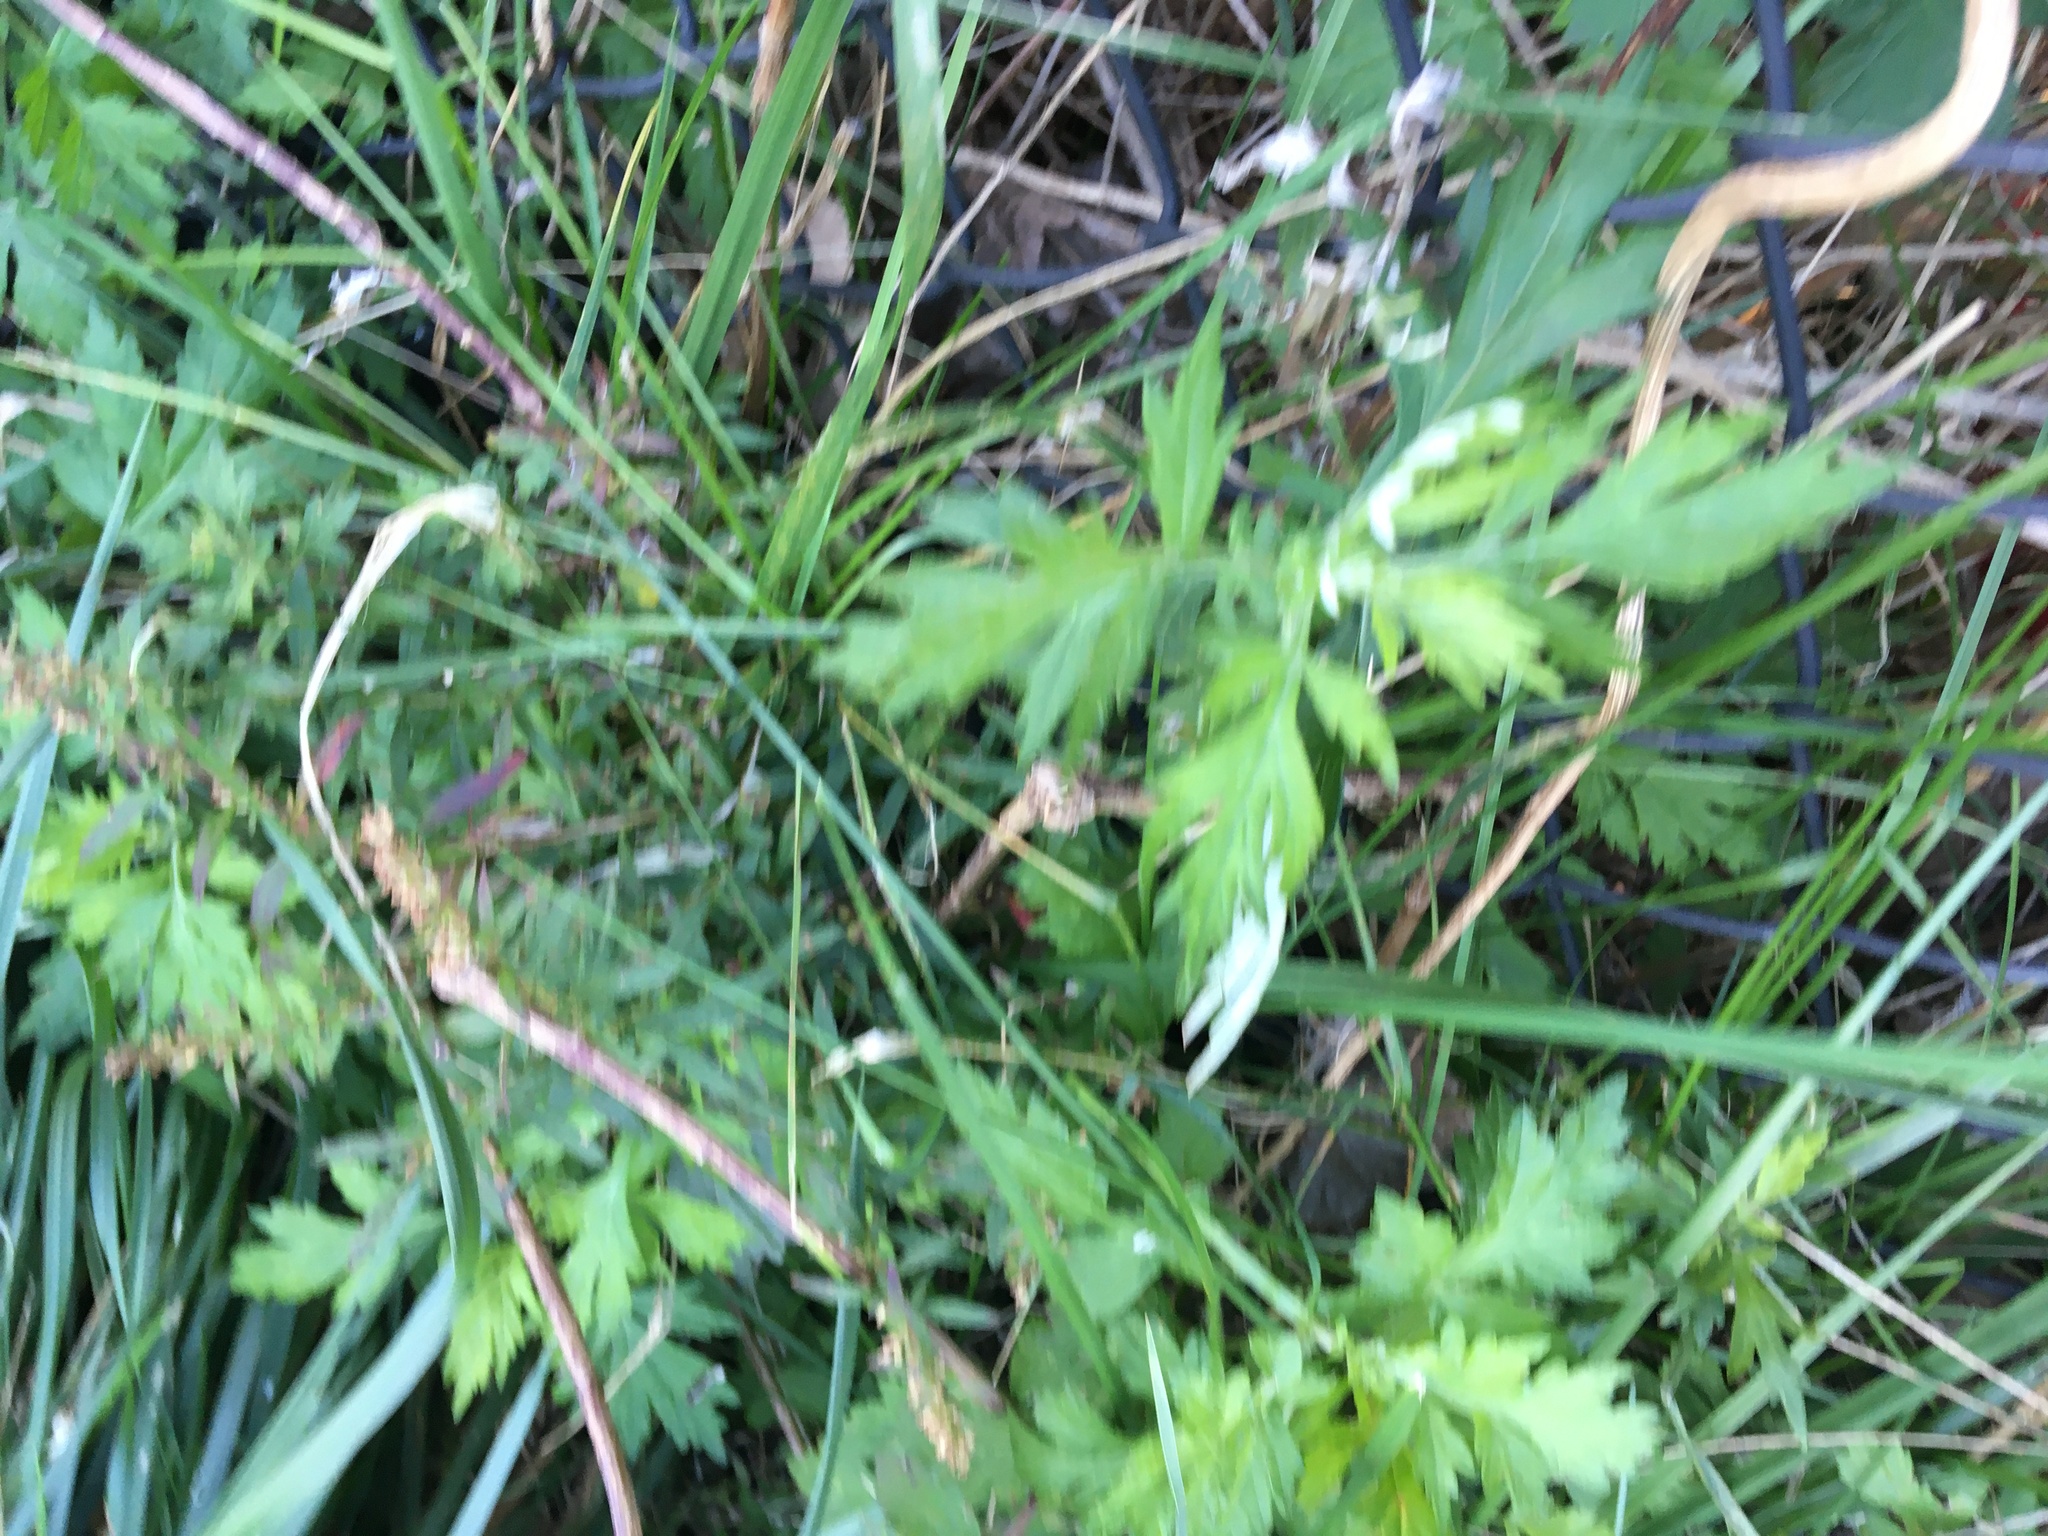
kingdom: Plantae
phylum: Tracheophyta
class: Magnoliopsida
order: Asterales
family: Asteraceae
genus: Artemisia
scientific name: Artemisia vulgaris
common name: Mugwort
